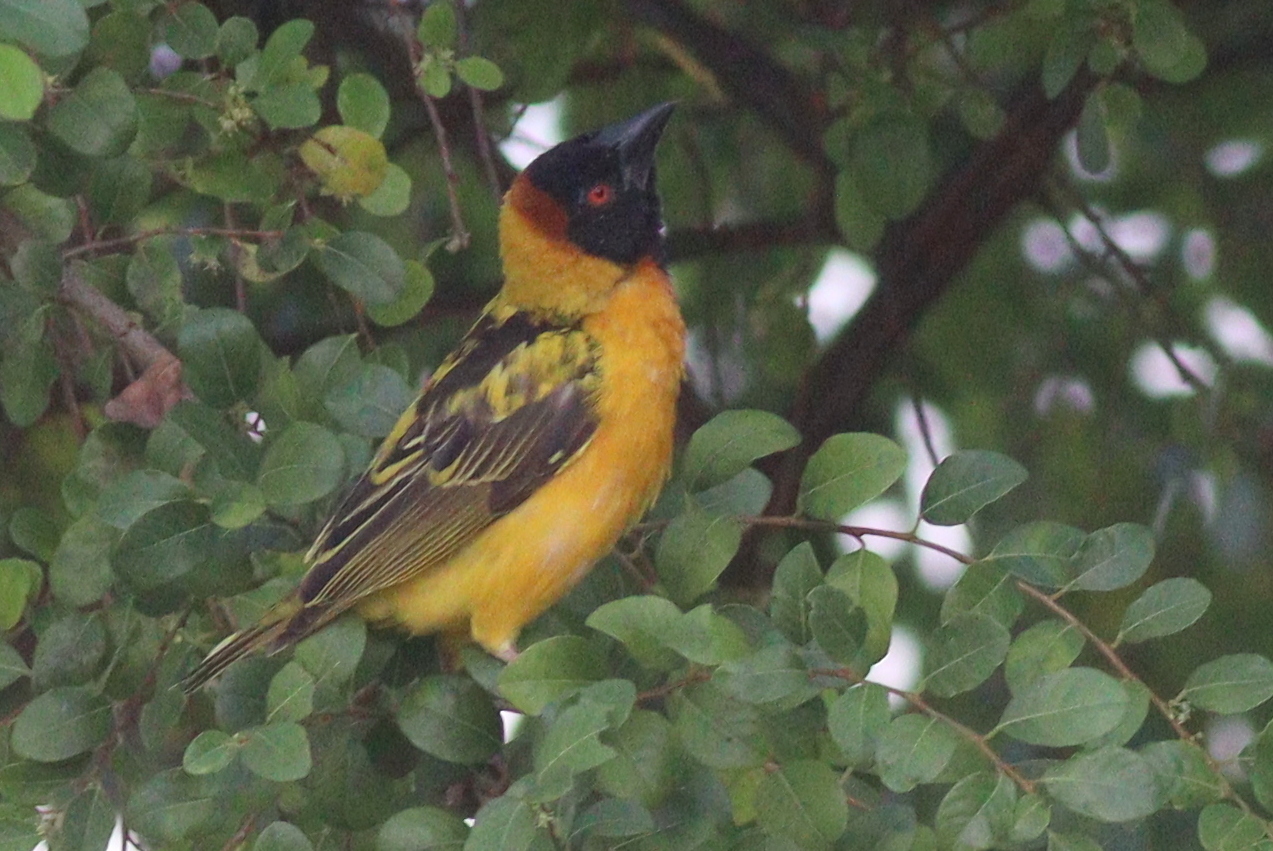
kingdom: Animalia
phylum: Chordata
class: Aves
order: Passeriformes
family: Ploceidae
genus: Ploceus
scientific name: Ploceus cucullatus
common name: Village weaver
